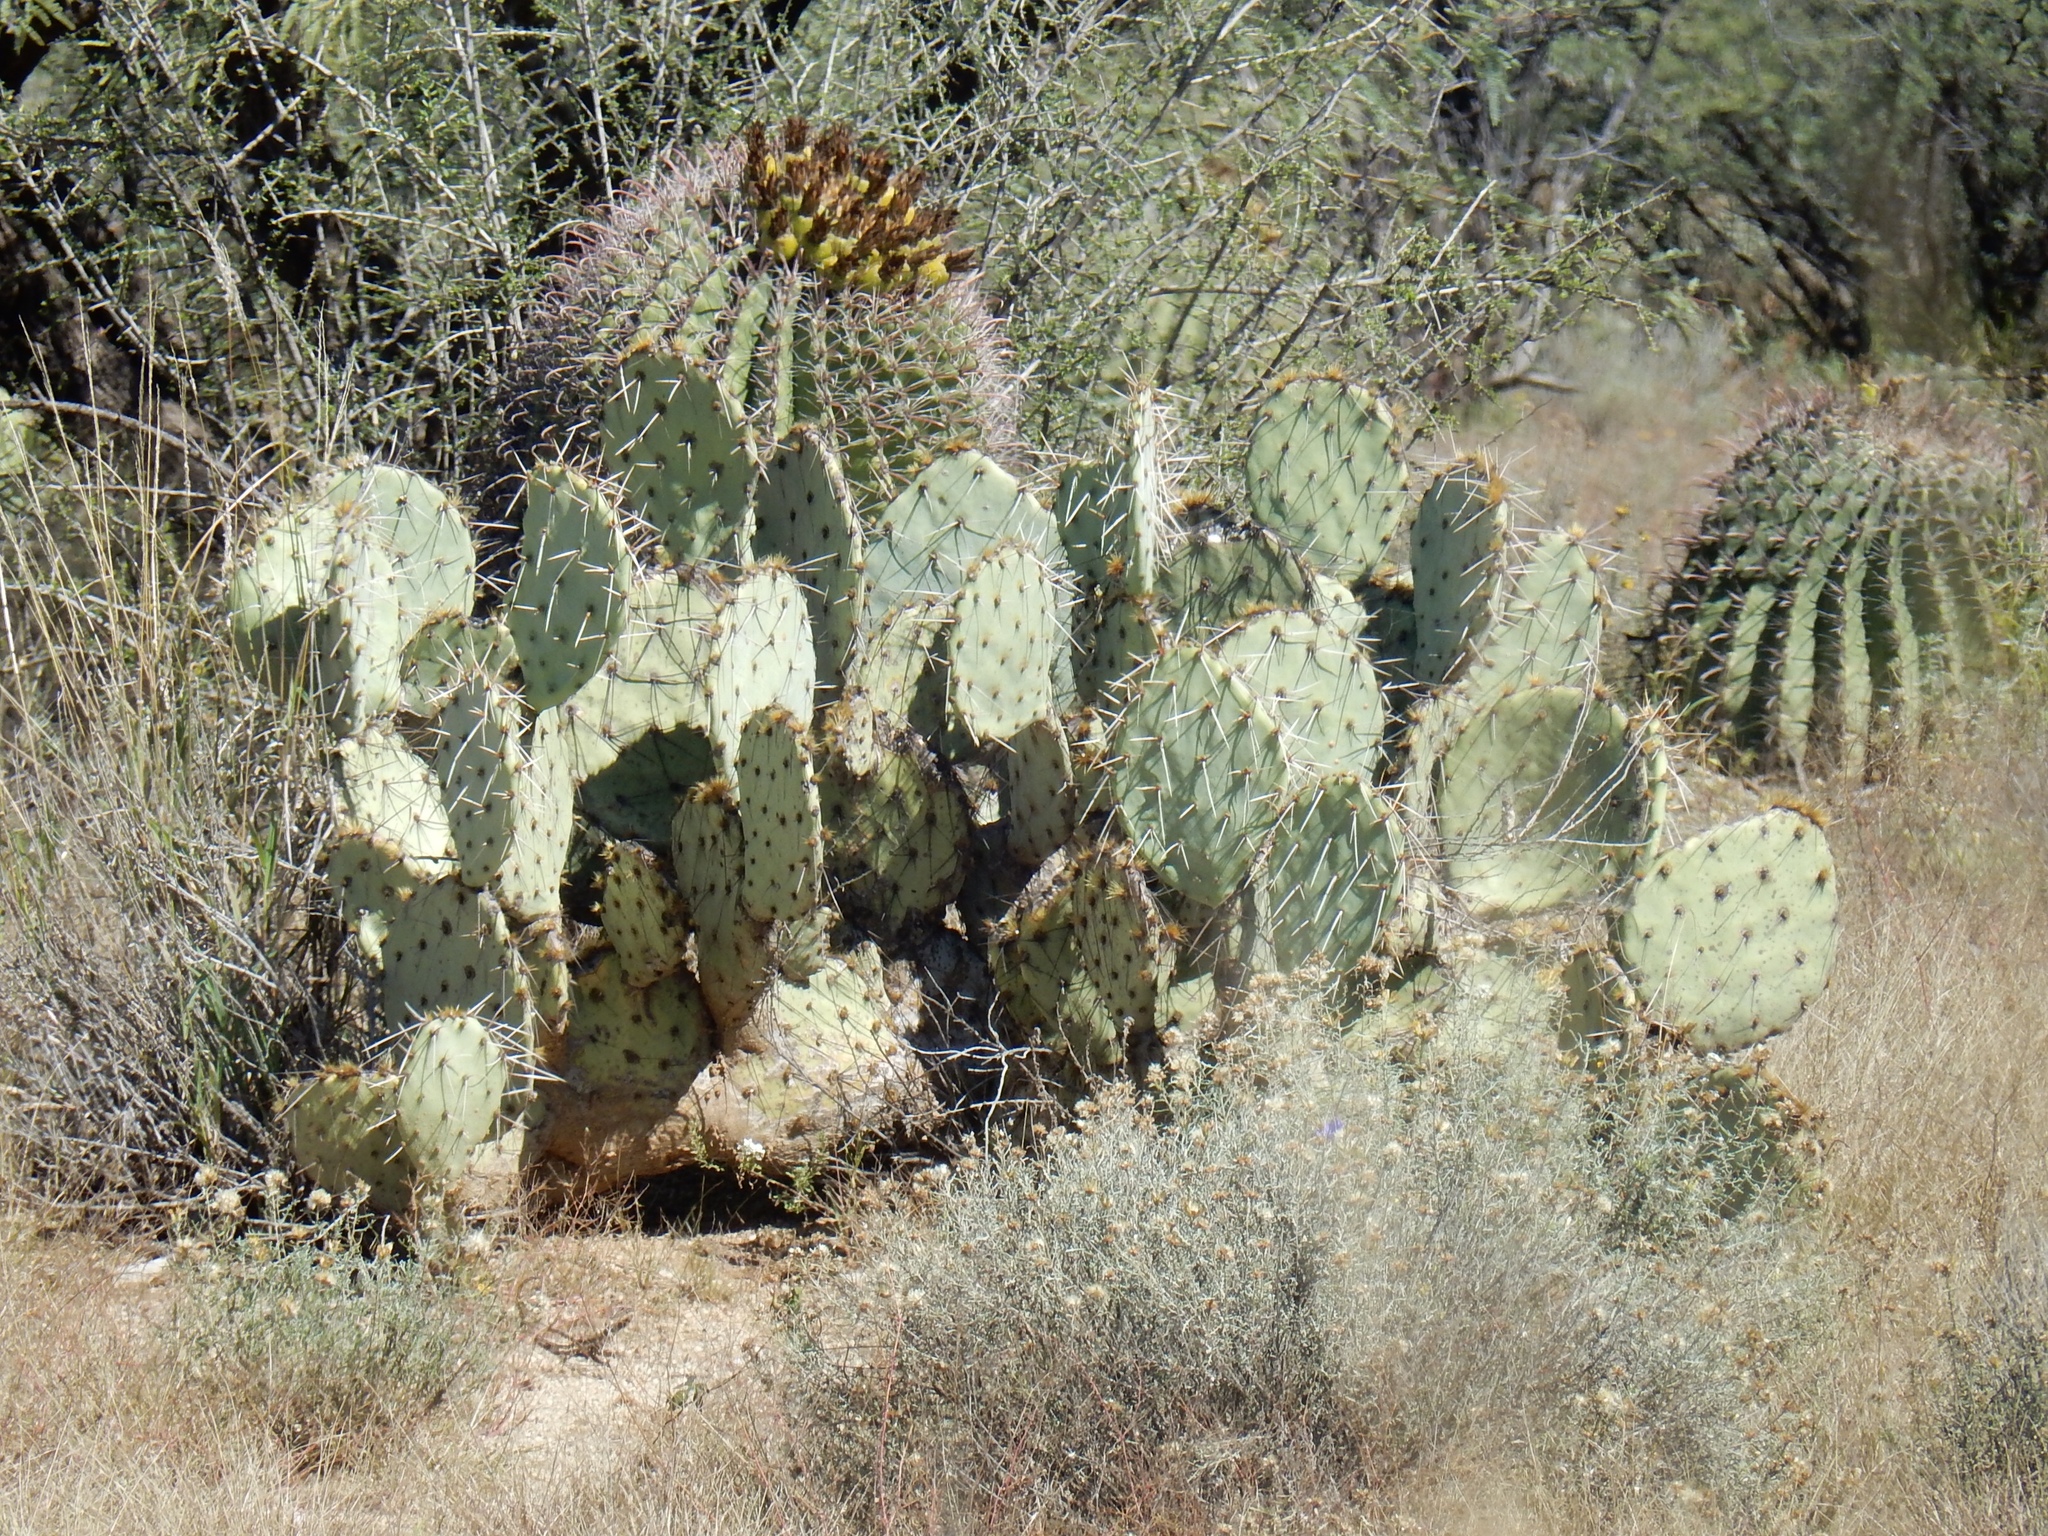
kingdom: Plantae
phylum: Tracheophyta
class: Magnoliopsida
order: Caryophyllales
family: Cactaceae
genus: Opuntia
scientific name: Opuntia engelmannii
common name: Cactus-apple
